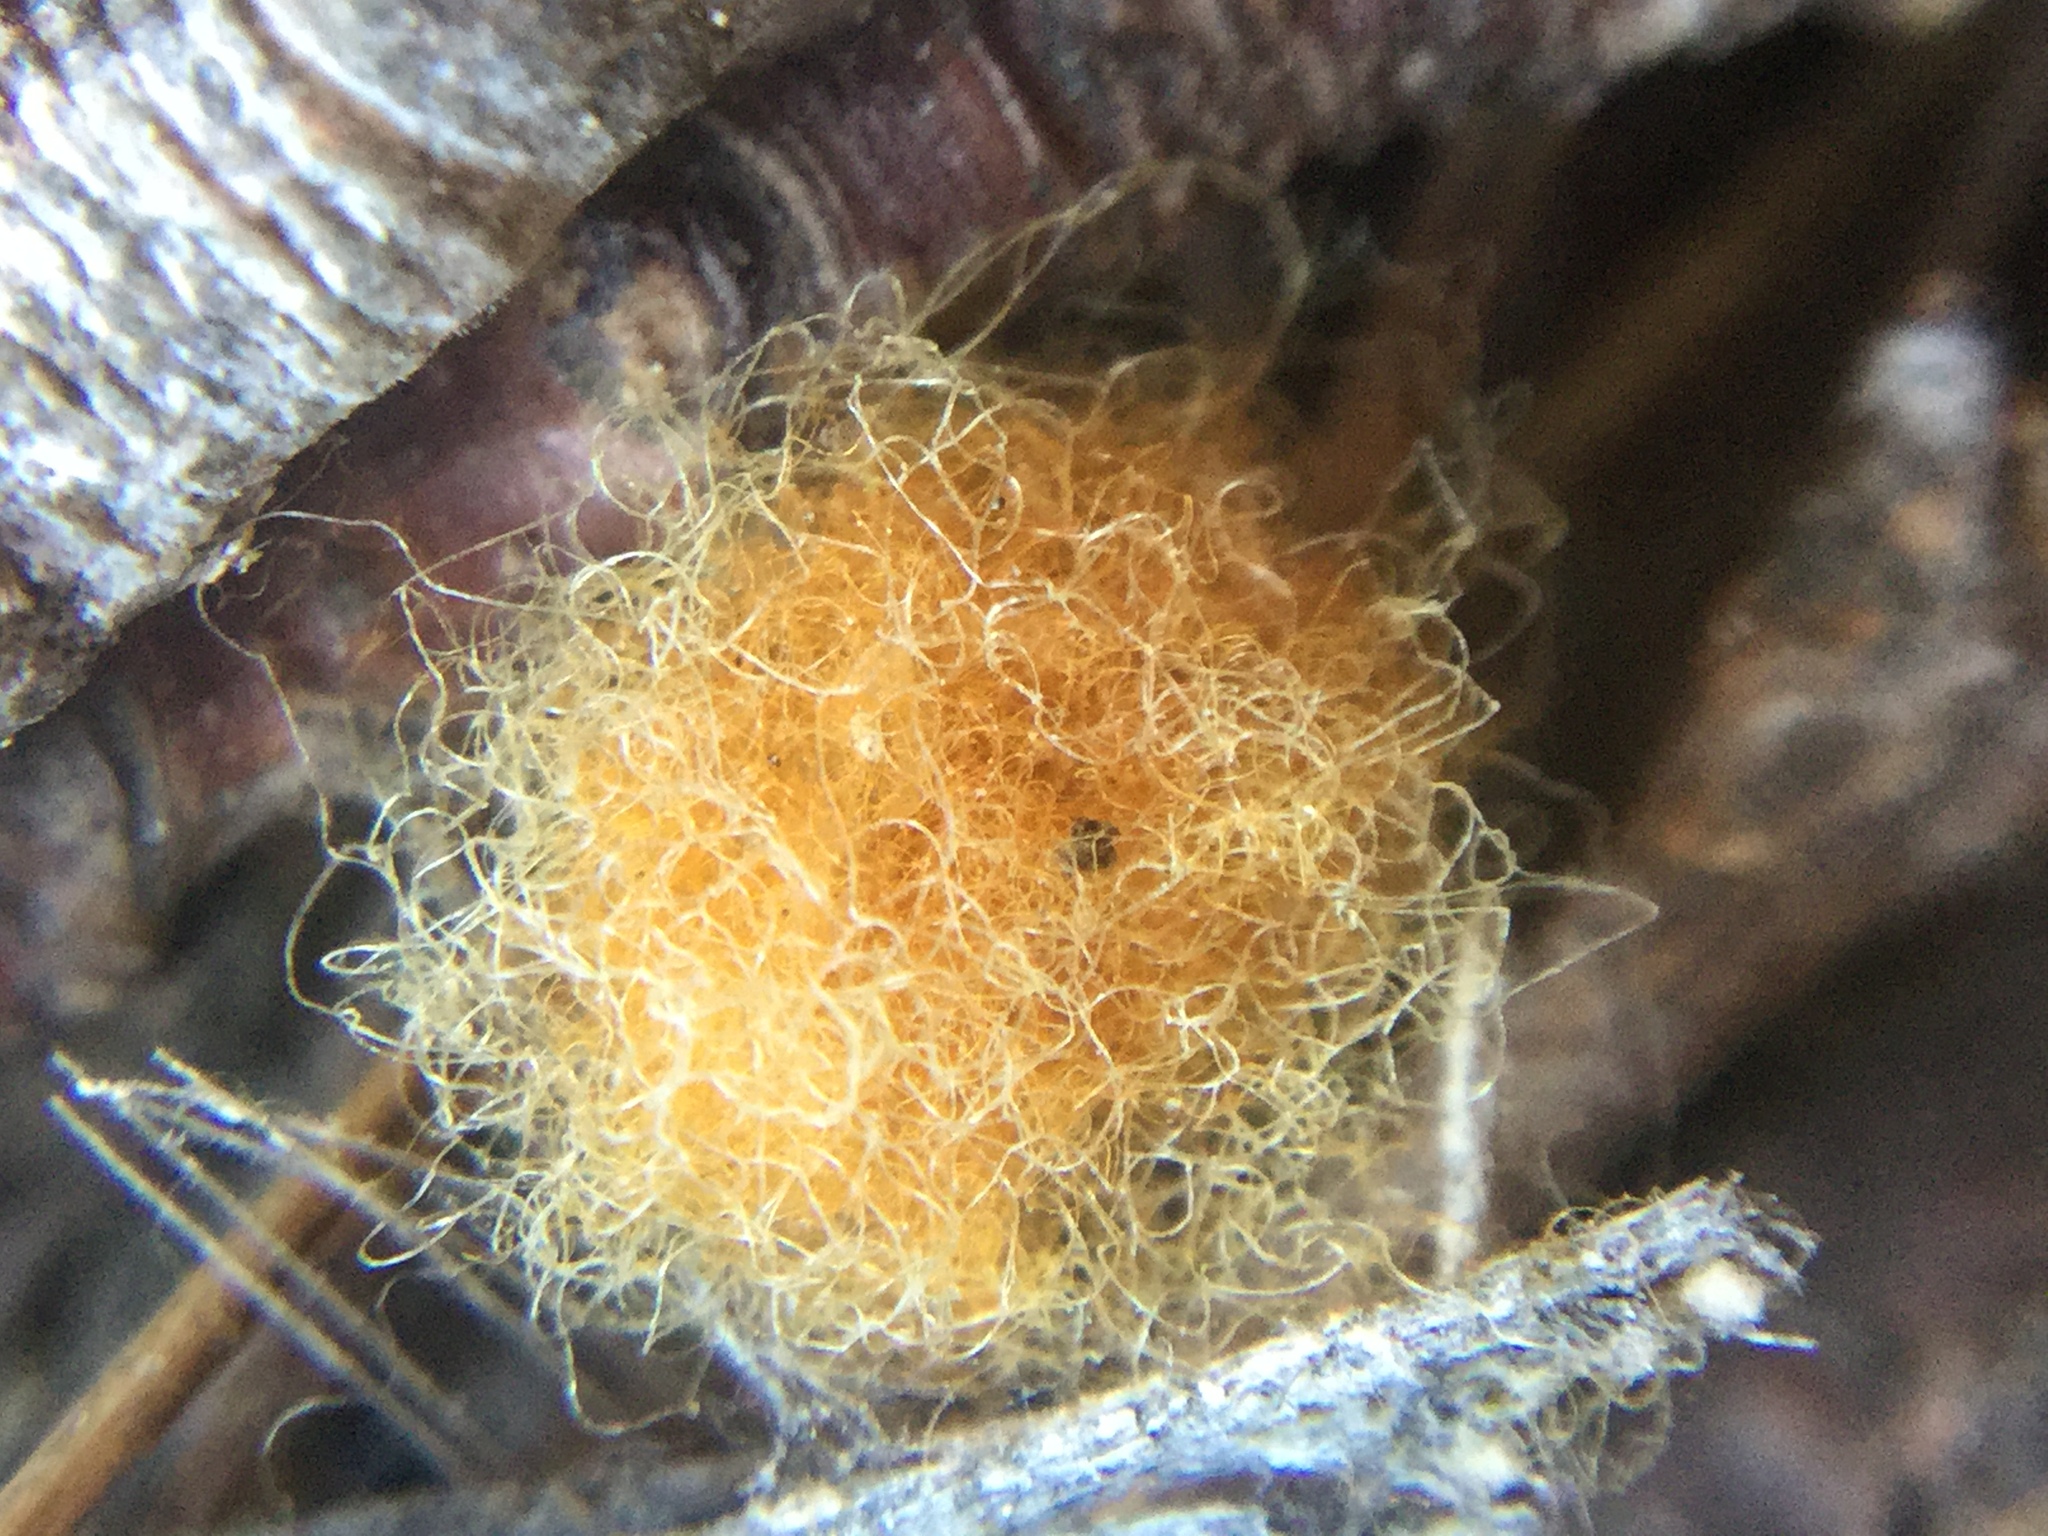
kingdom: Animalia
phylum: Arthropoda
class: Arachnida
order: Araneae
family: Araneidae
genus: Araniella
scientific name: Araniella displicata
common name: Sixspotted orb weaver
